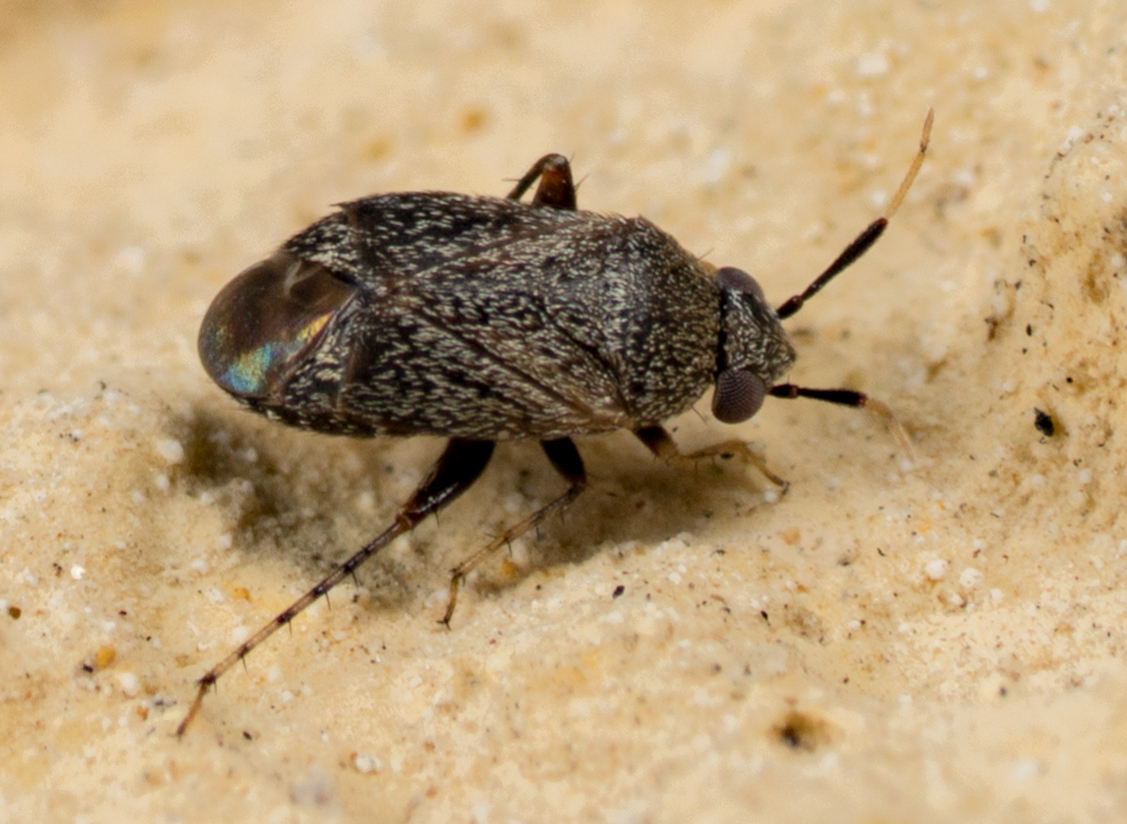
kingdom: Animalia
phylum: Arthropoda
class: Insecta
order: Hemiptera
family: Miridae
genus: Rhinacloa
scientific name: Rhinacloa forticornis
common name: Brown cotton mirid
